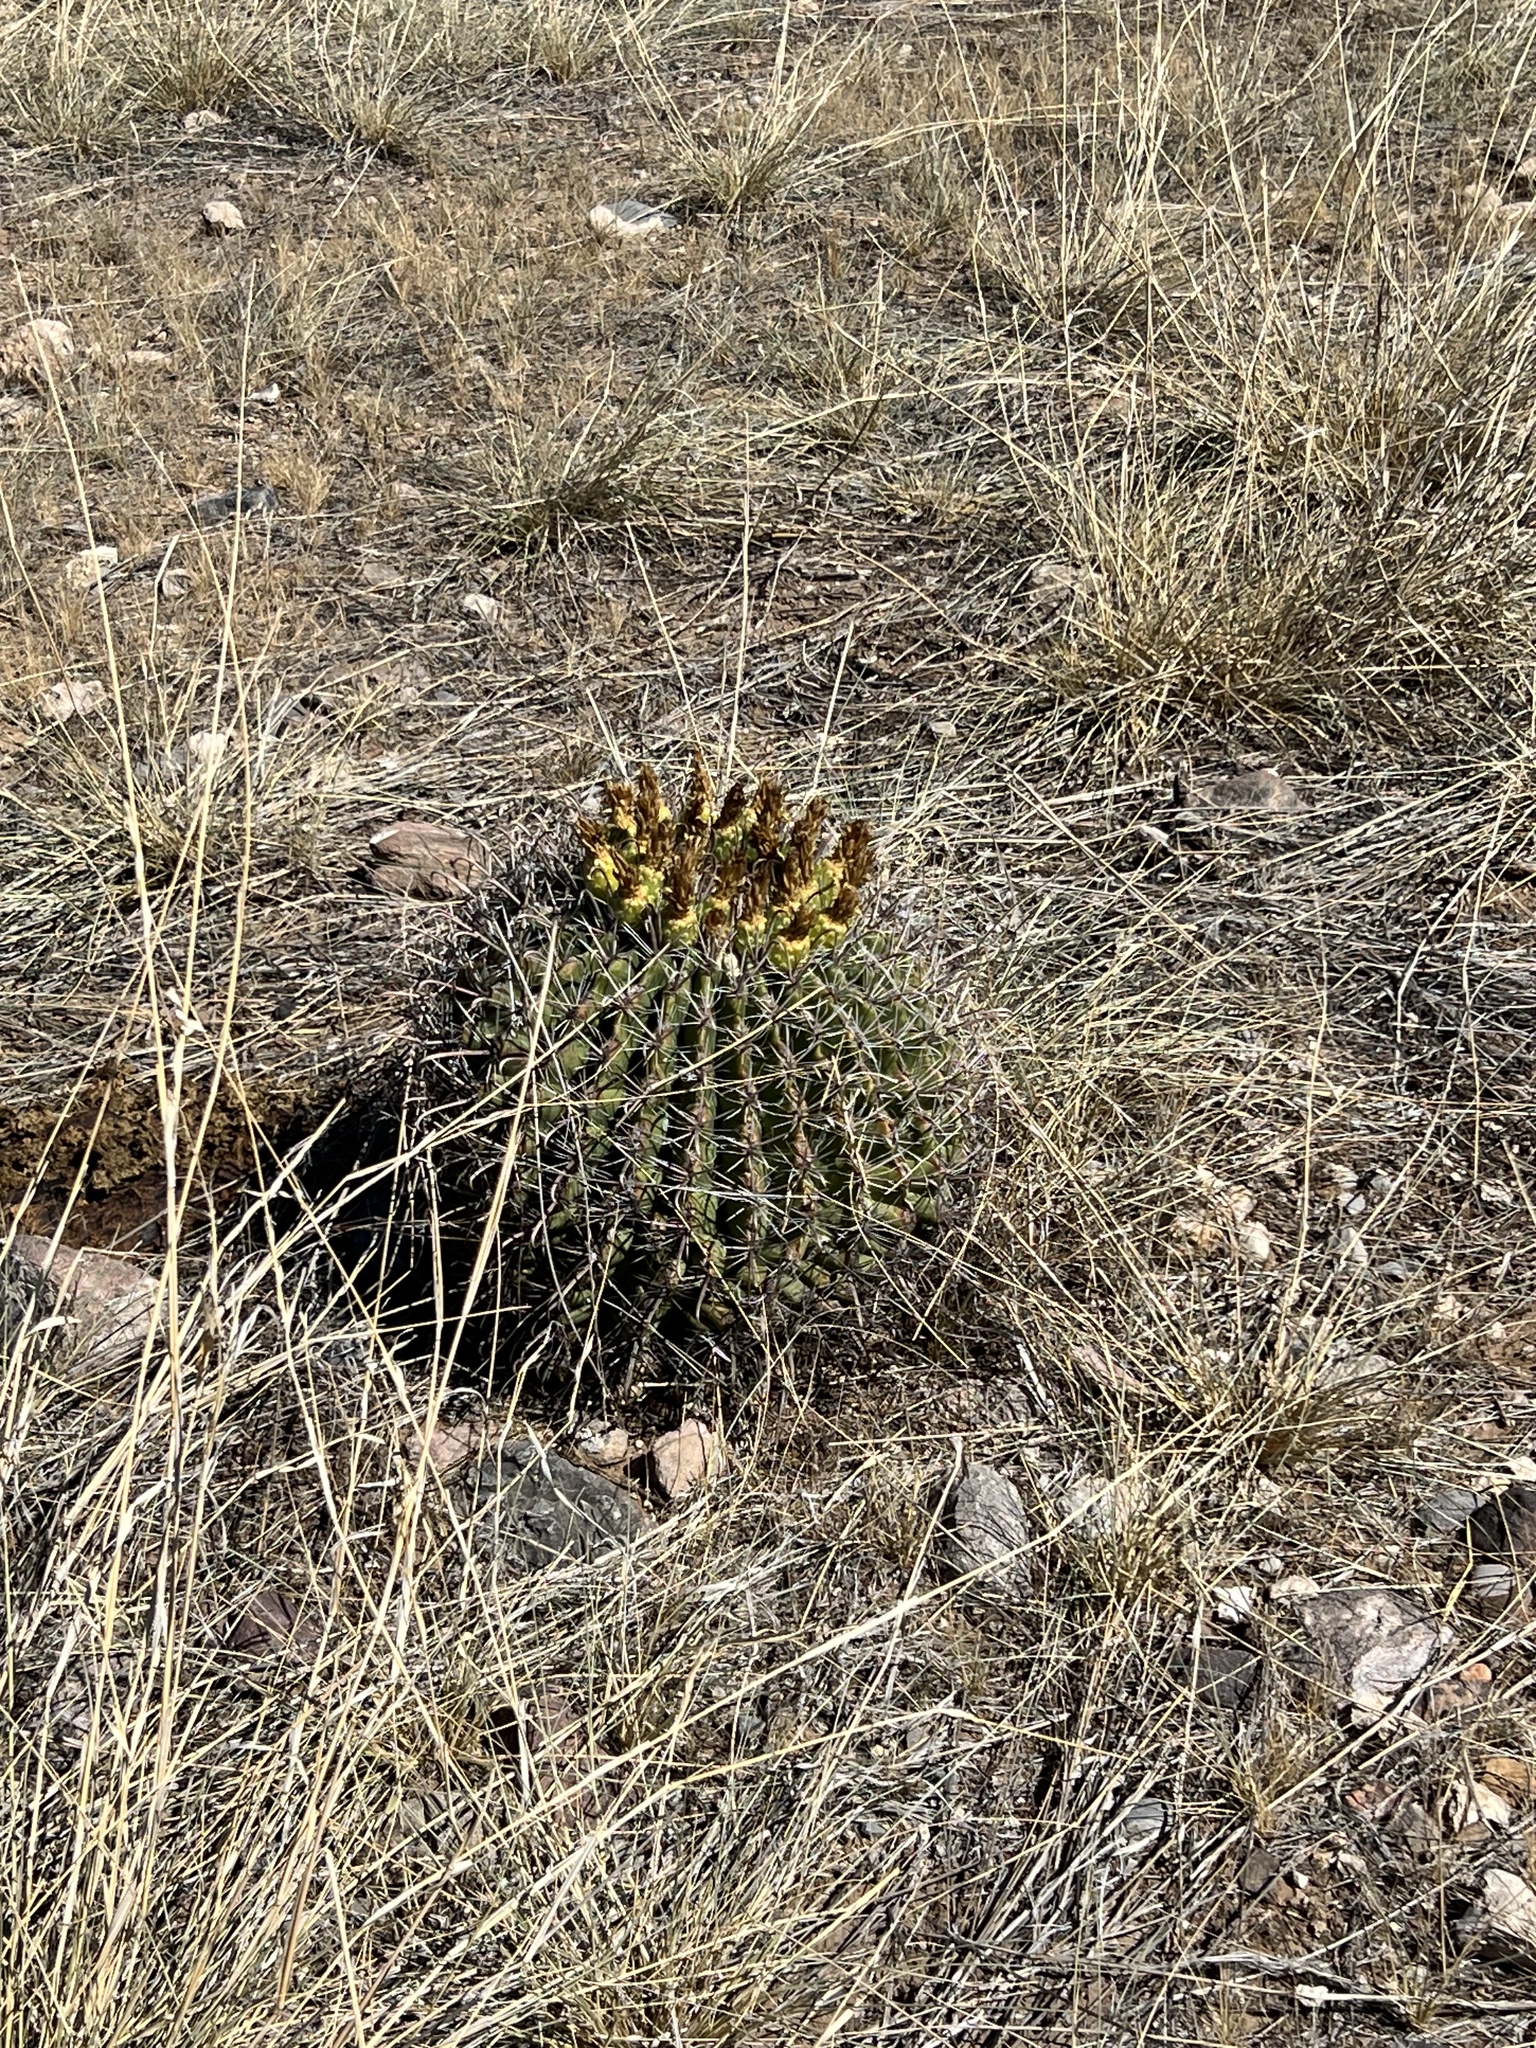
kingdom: Plantae
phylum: Tracheophyta
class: Magnoliopsida
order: Caryophyllales
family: Cactaceae
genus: Ferocactus
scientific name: Ferocactus wislizeni
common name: Candy barrel cactus
